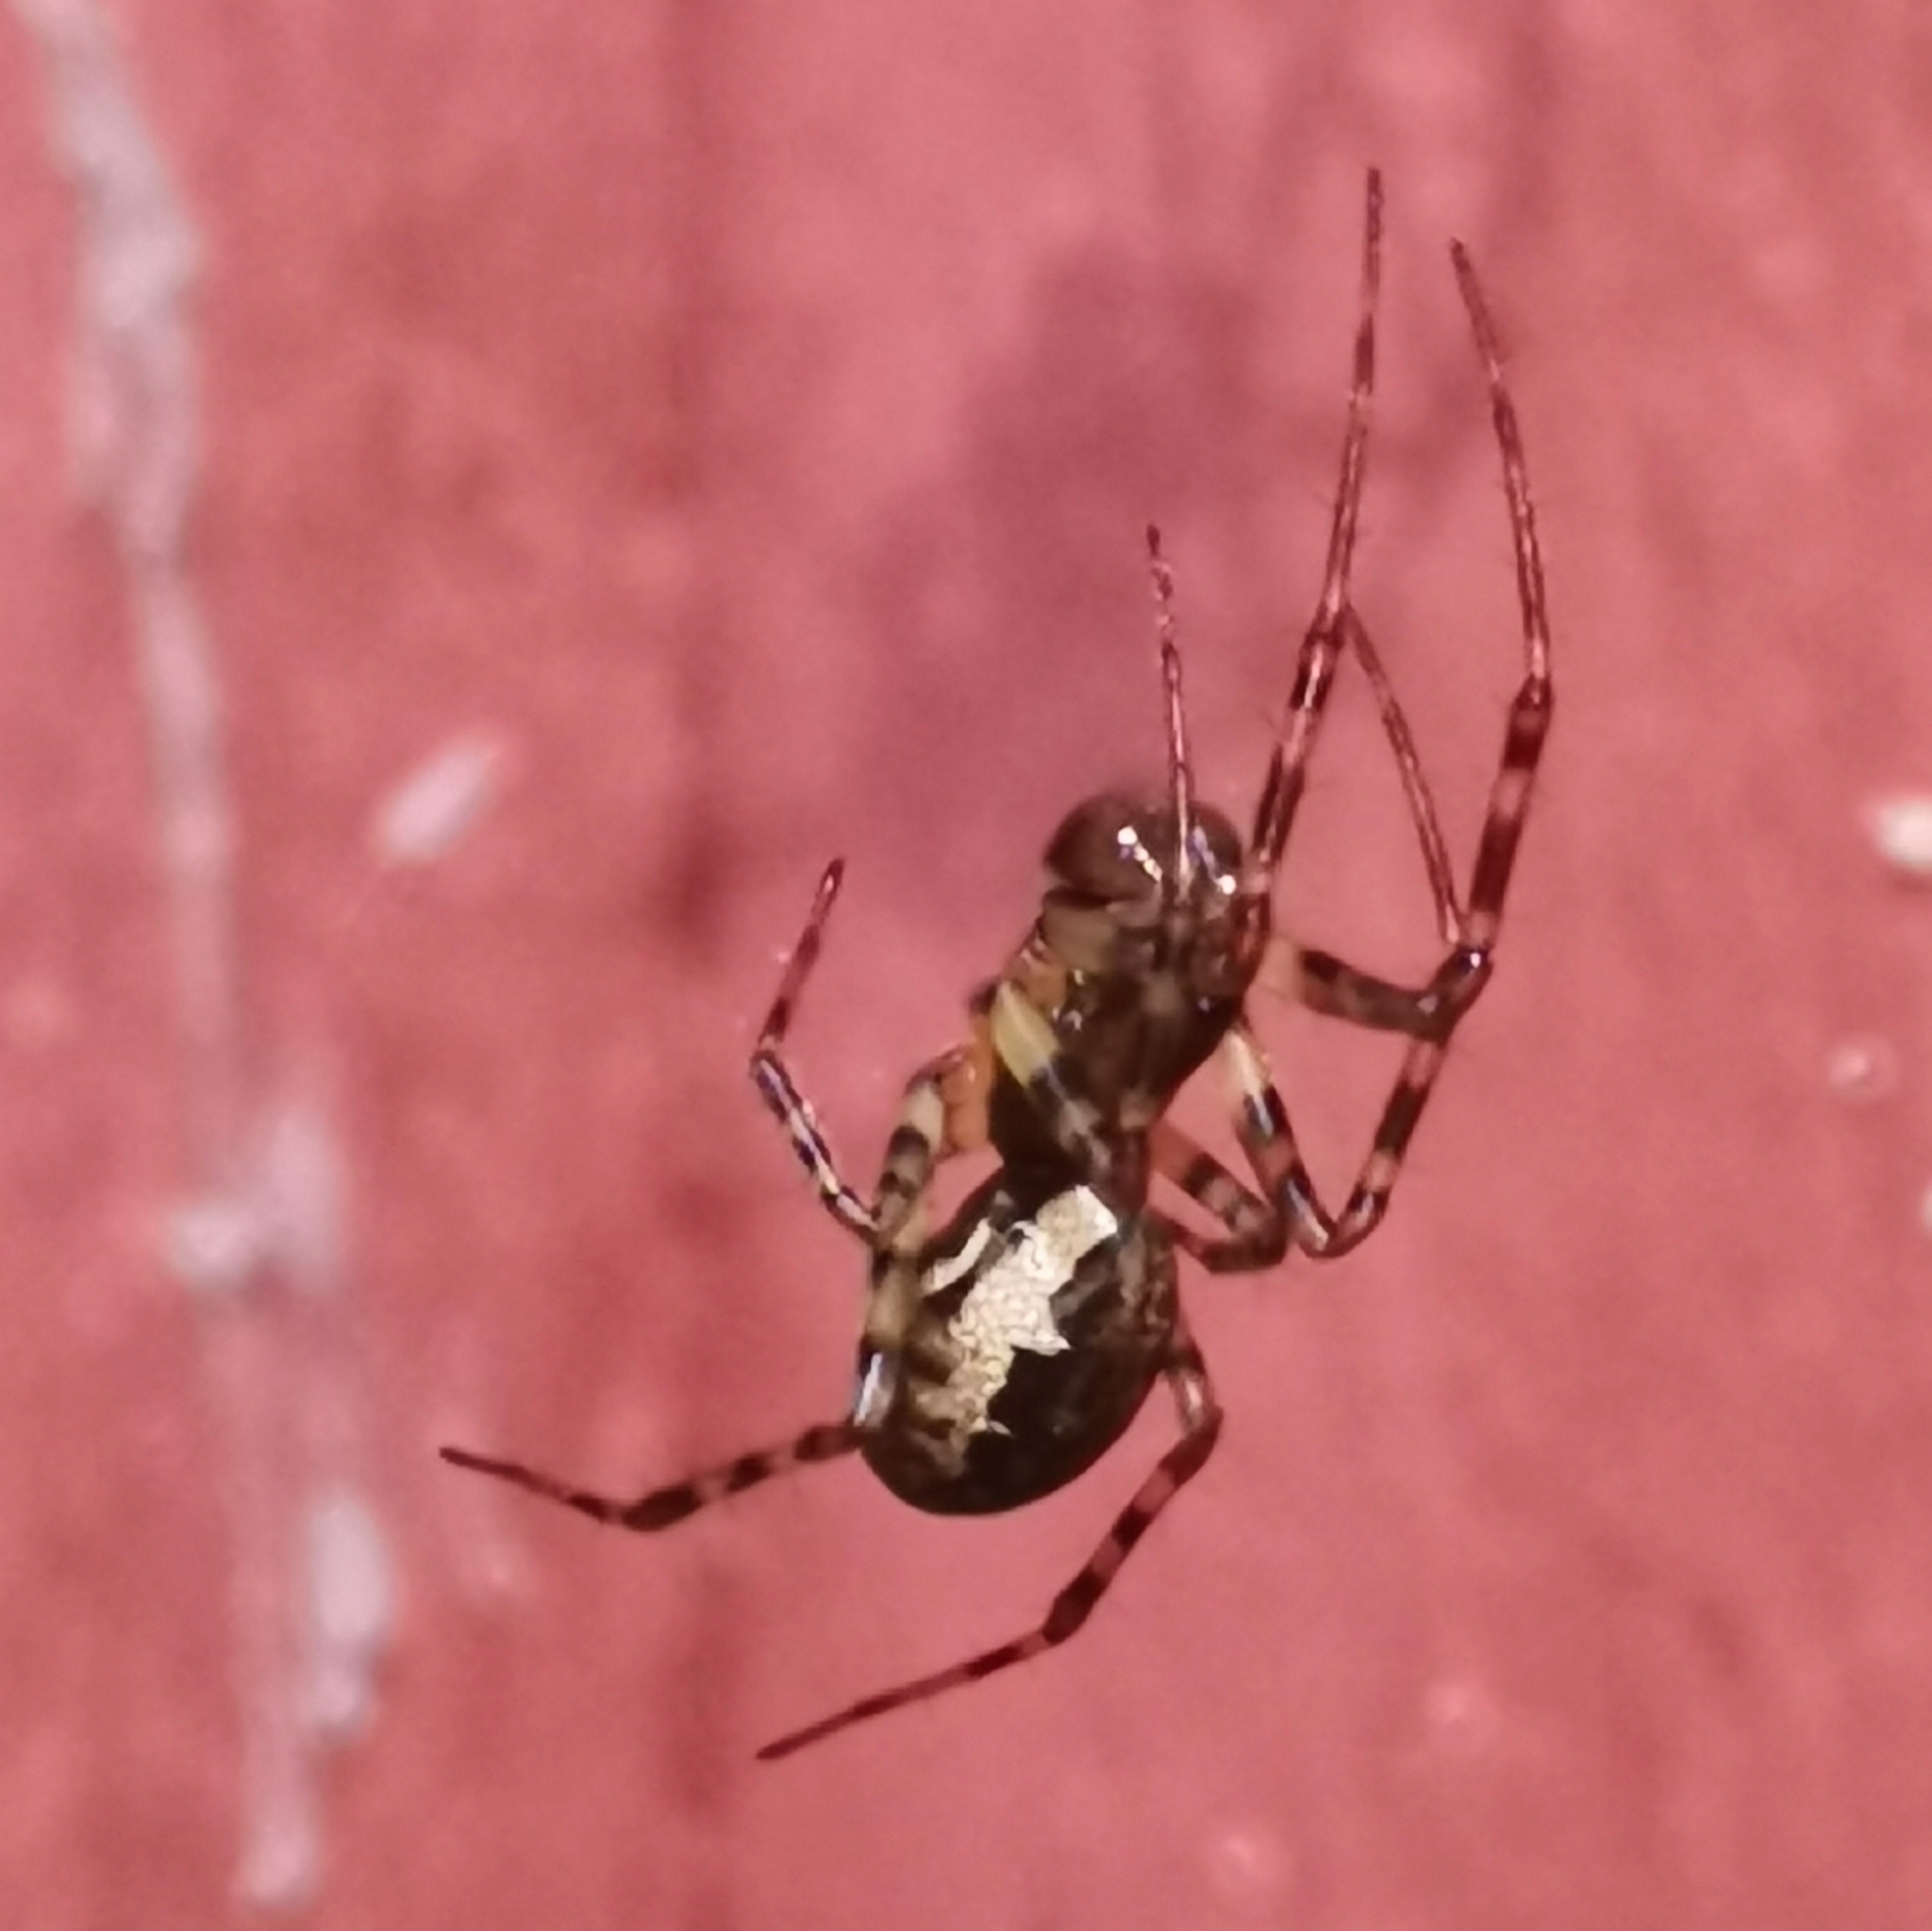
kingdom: Animalia
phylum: Arthropoda
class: Arachnida
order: Araneae
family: Linyphiidae
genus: Neriene
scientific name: Neriene montana
